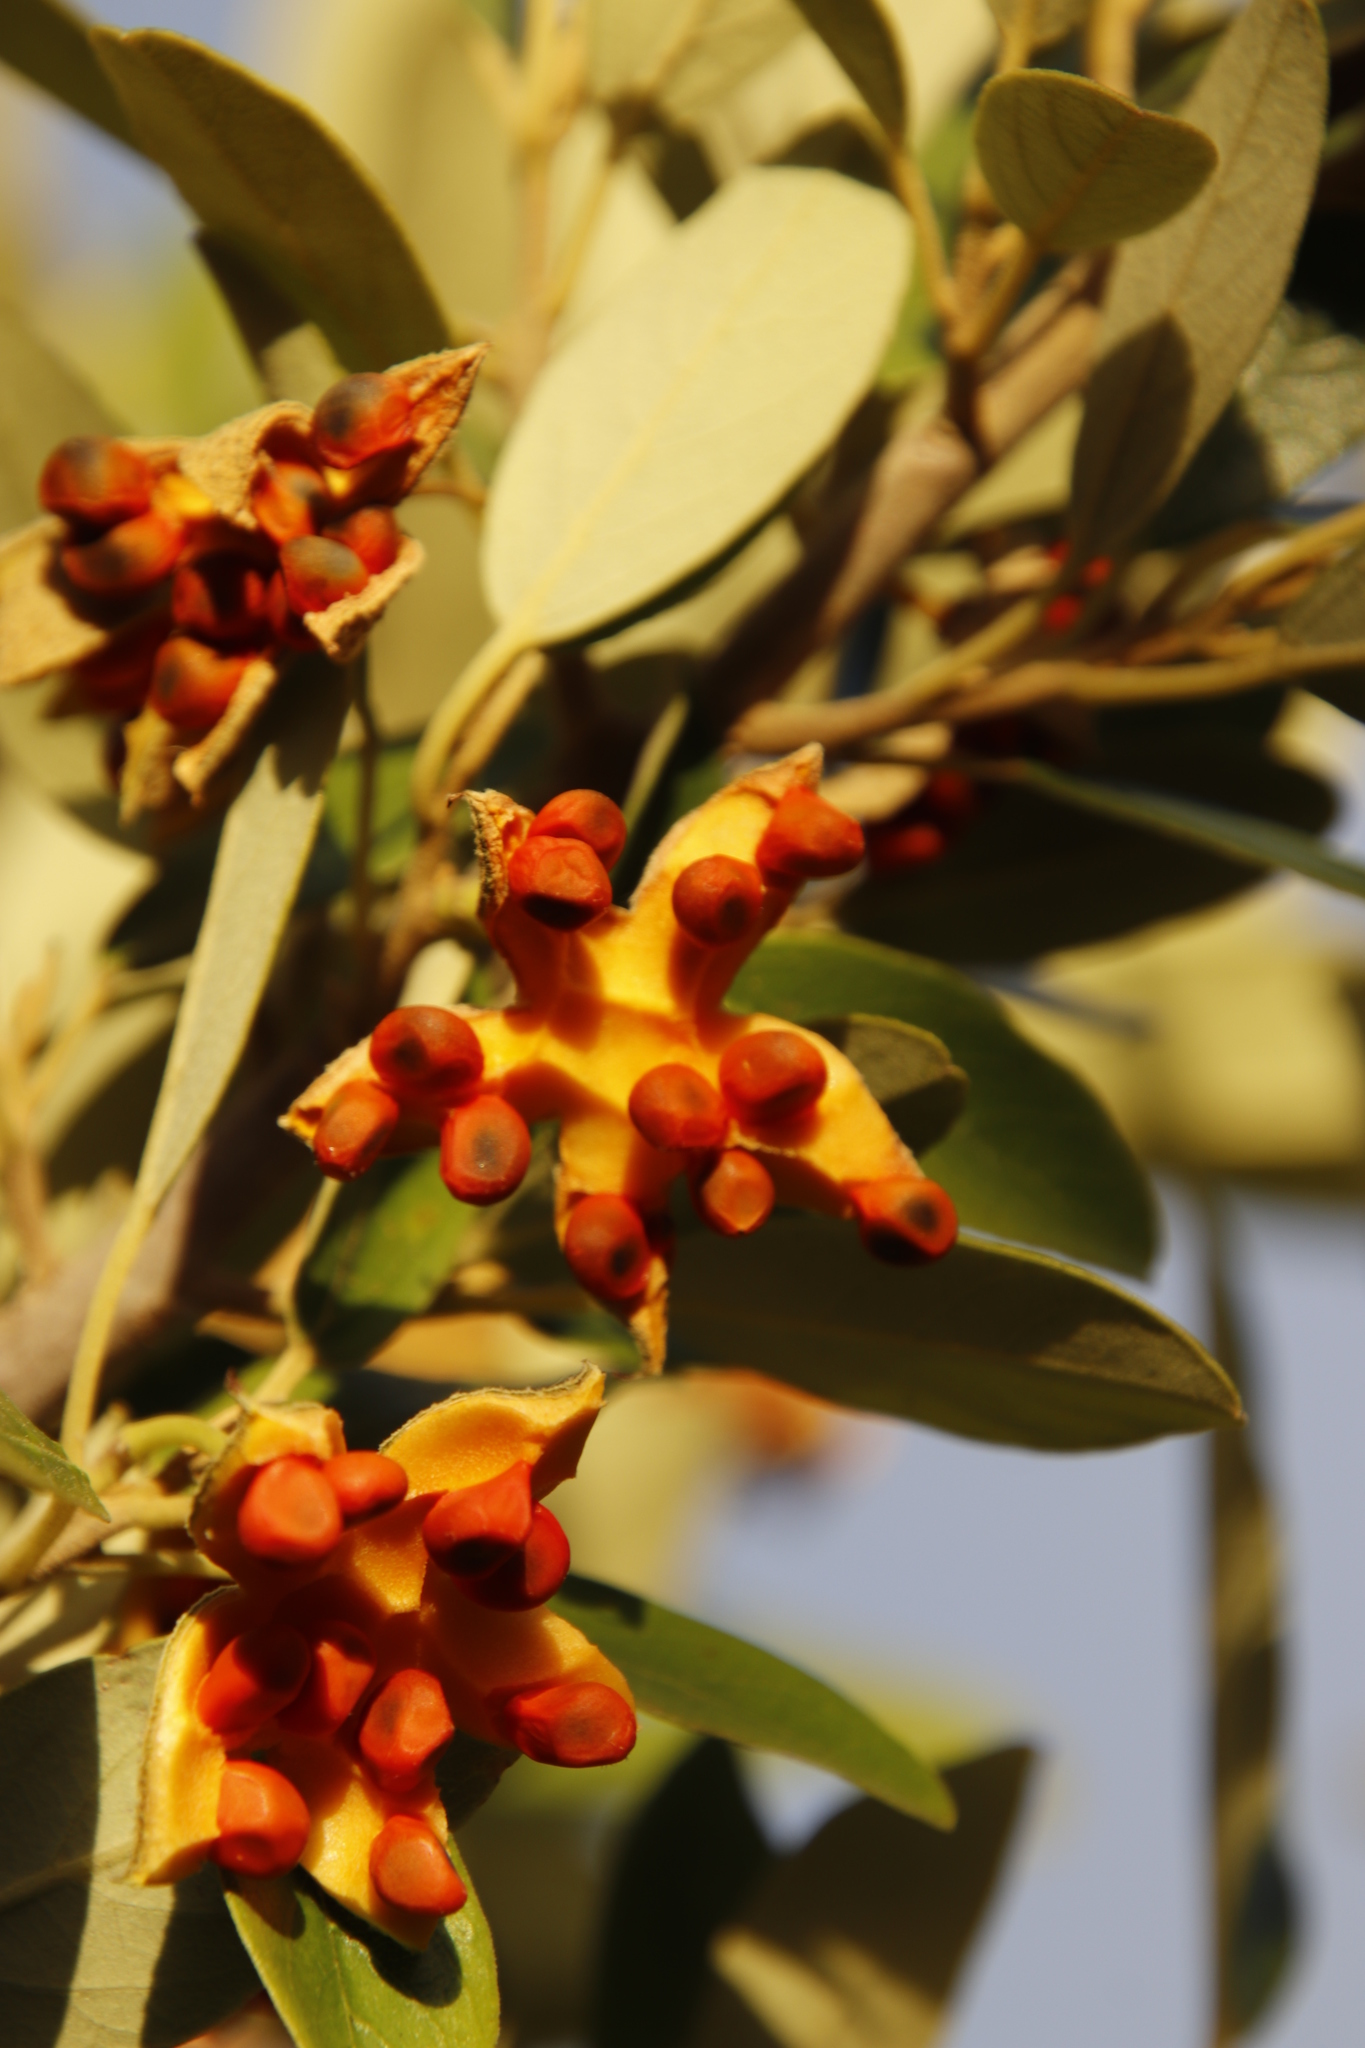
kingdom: Plantae
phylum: Tracheophyta
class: Magnoliopsida
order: Malpighiales
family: Achariaceae
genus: Kiggelaria
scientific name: Kiggelaria africana
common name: Wild peach
